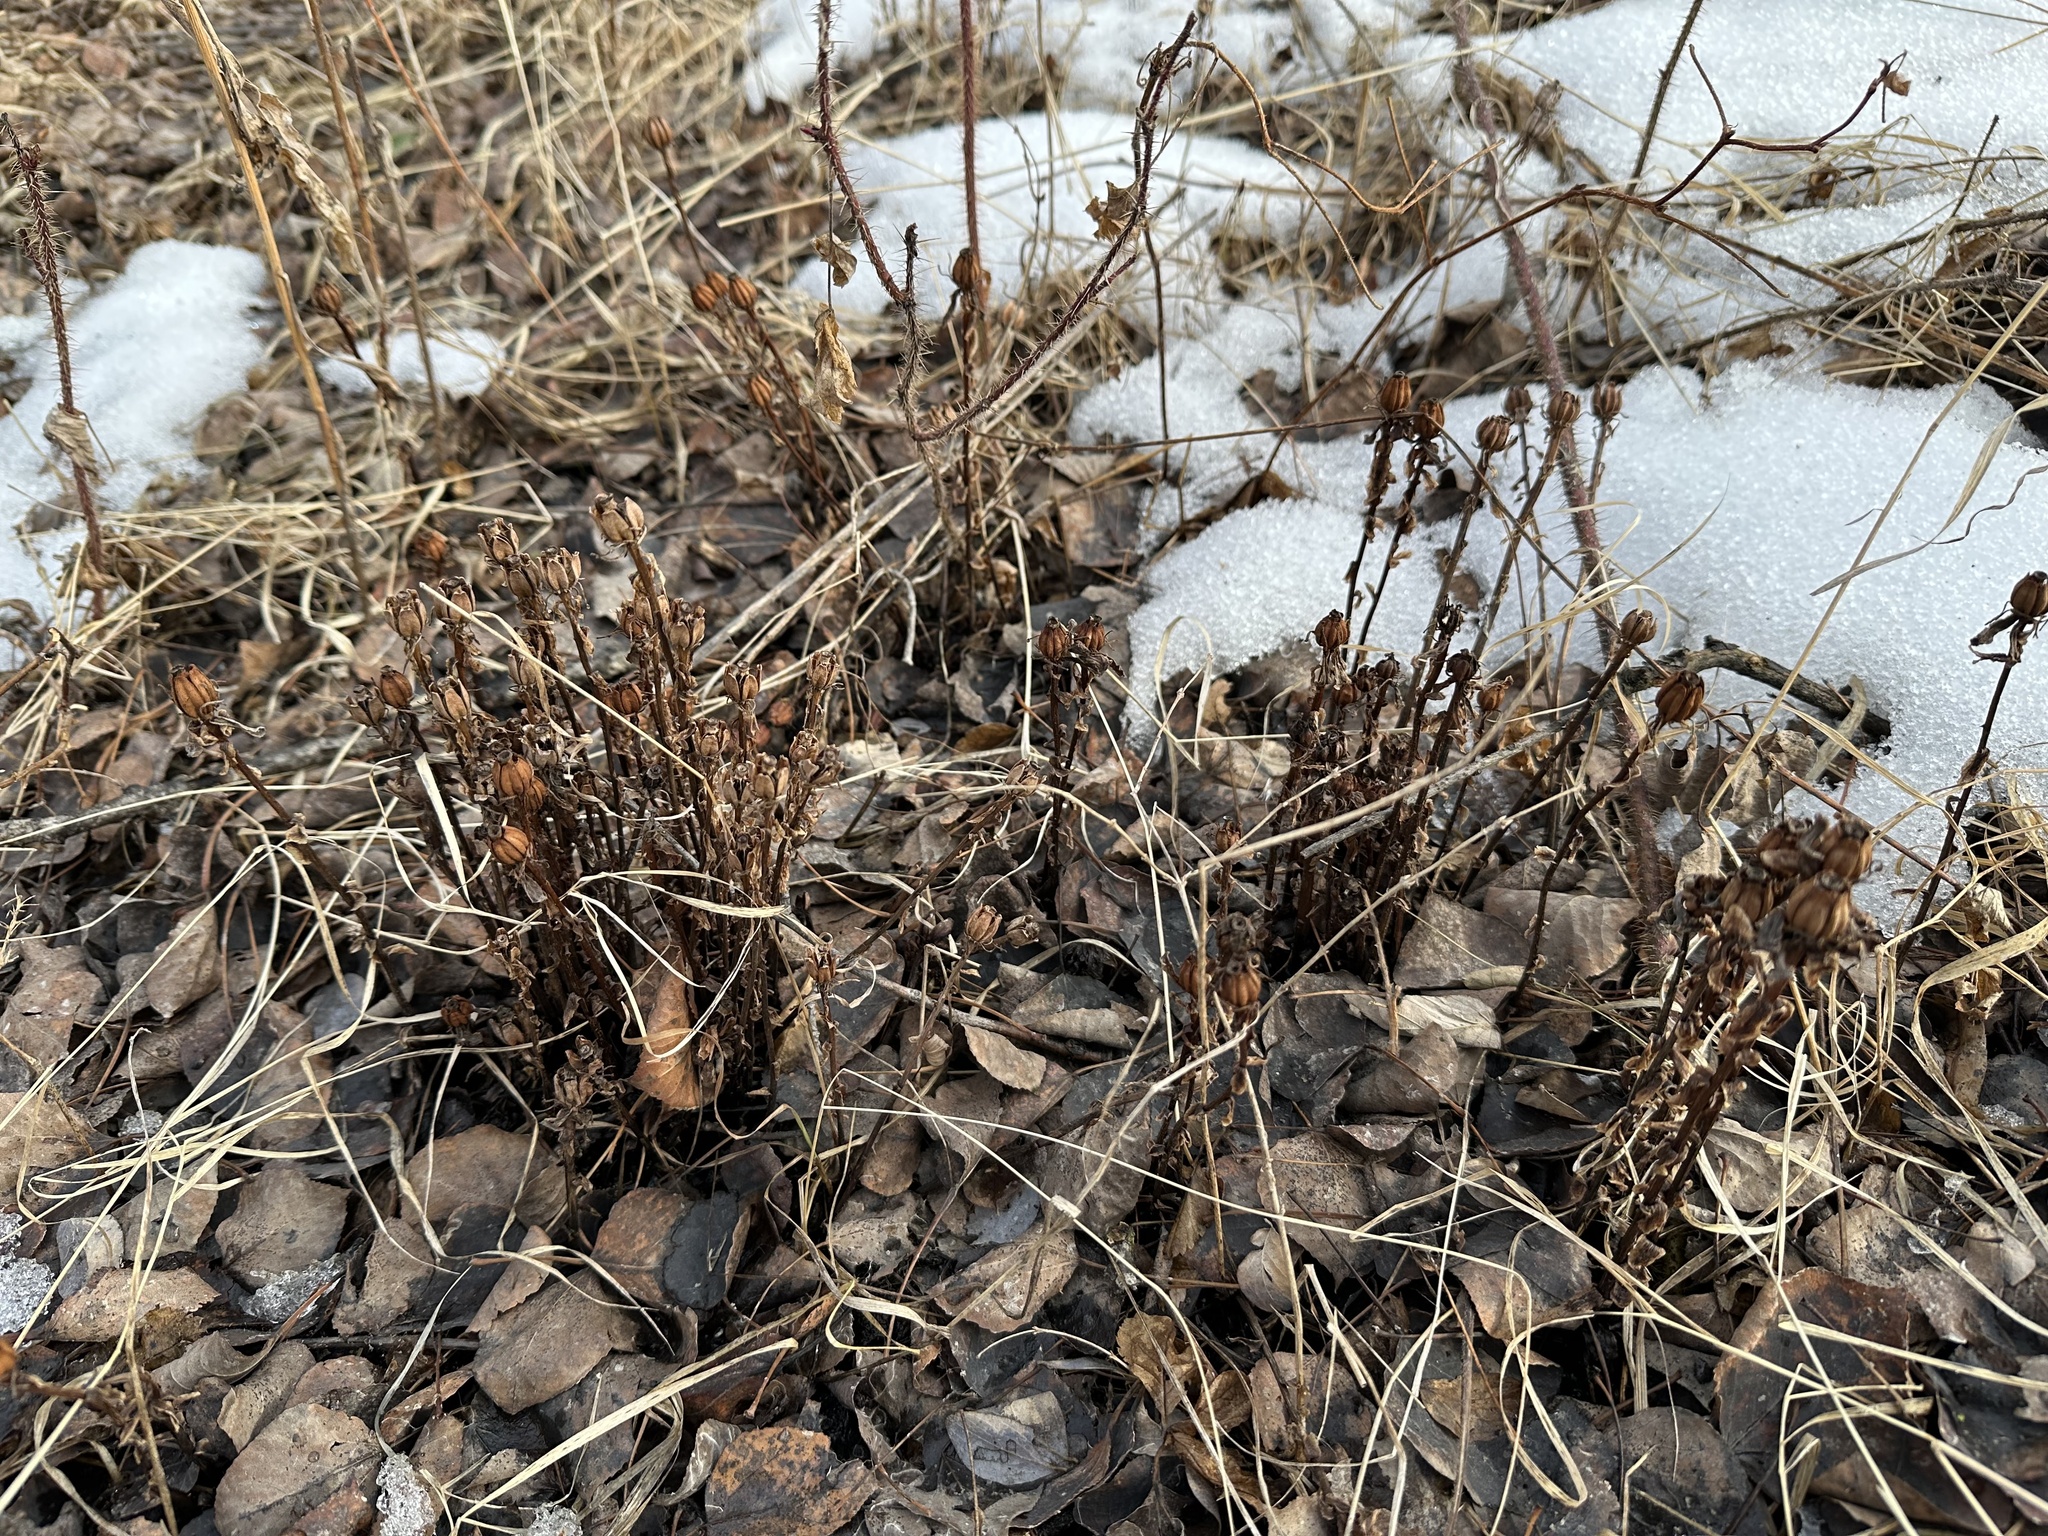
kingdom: Plantae
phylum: Tracheophyta
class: Magnoliopsida
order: Ericales
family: Ericaceae
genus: Monotropa
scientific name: Monotropa uniflora
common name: Convulsion root
